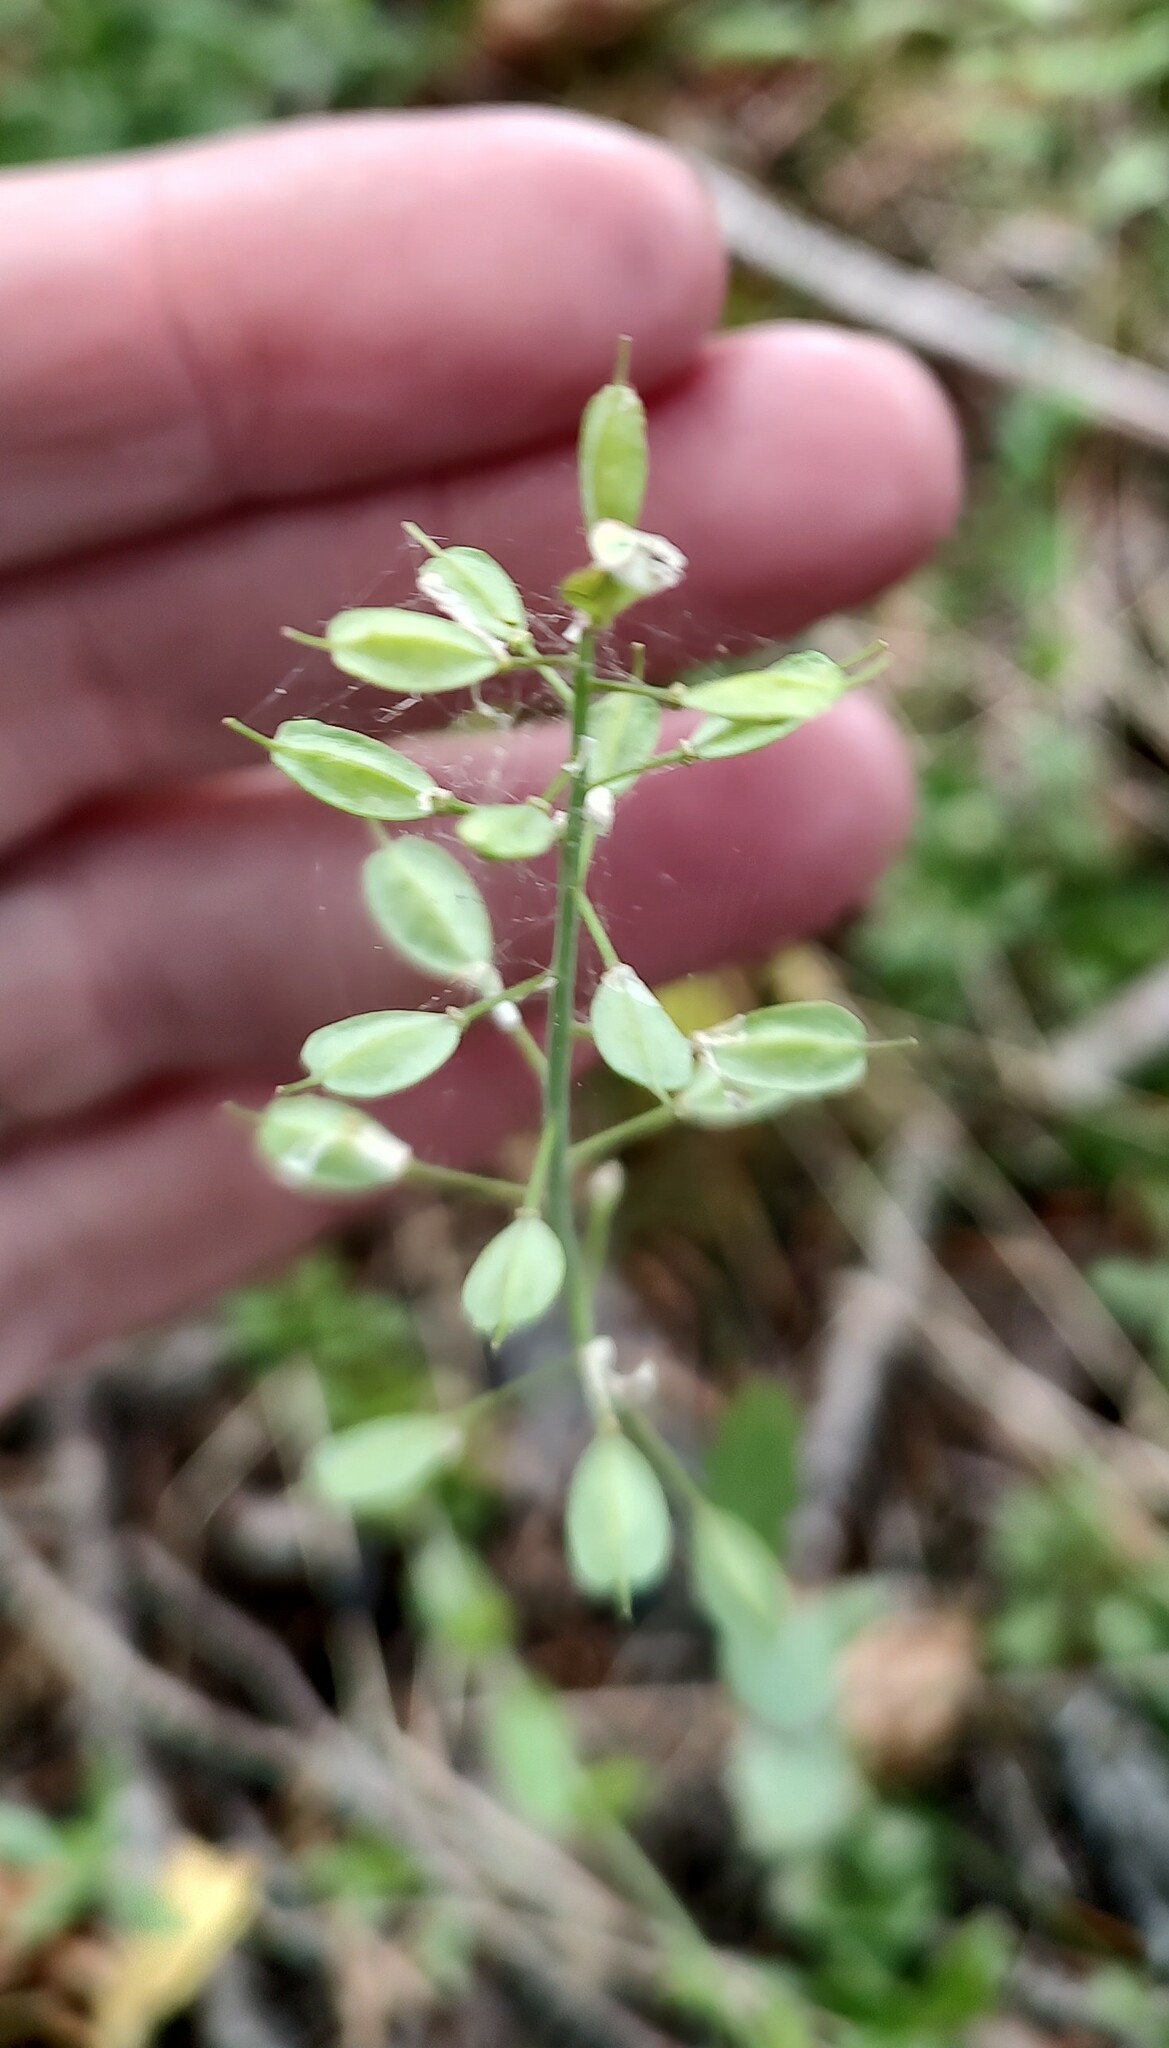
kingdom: Plantae
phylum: Tracheophyta
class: Magnoliopsida
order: Brassicales
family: Brassicaceae
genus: Noccaea
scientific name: Noccaea fendleri
